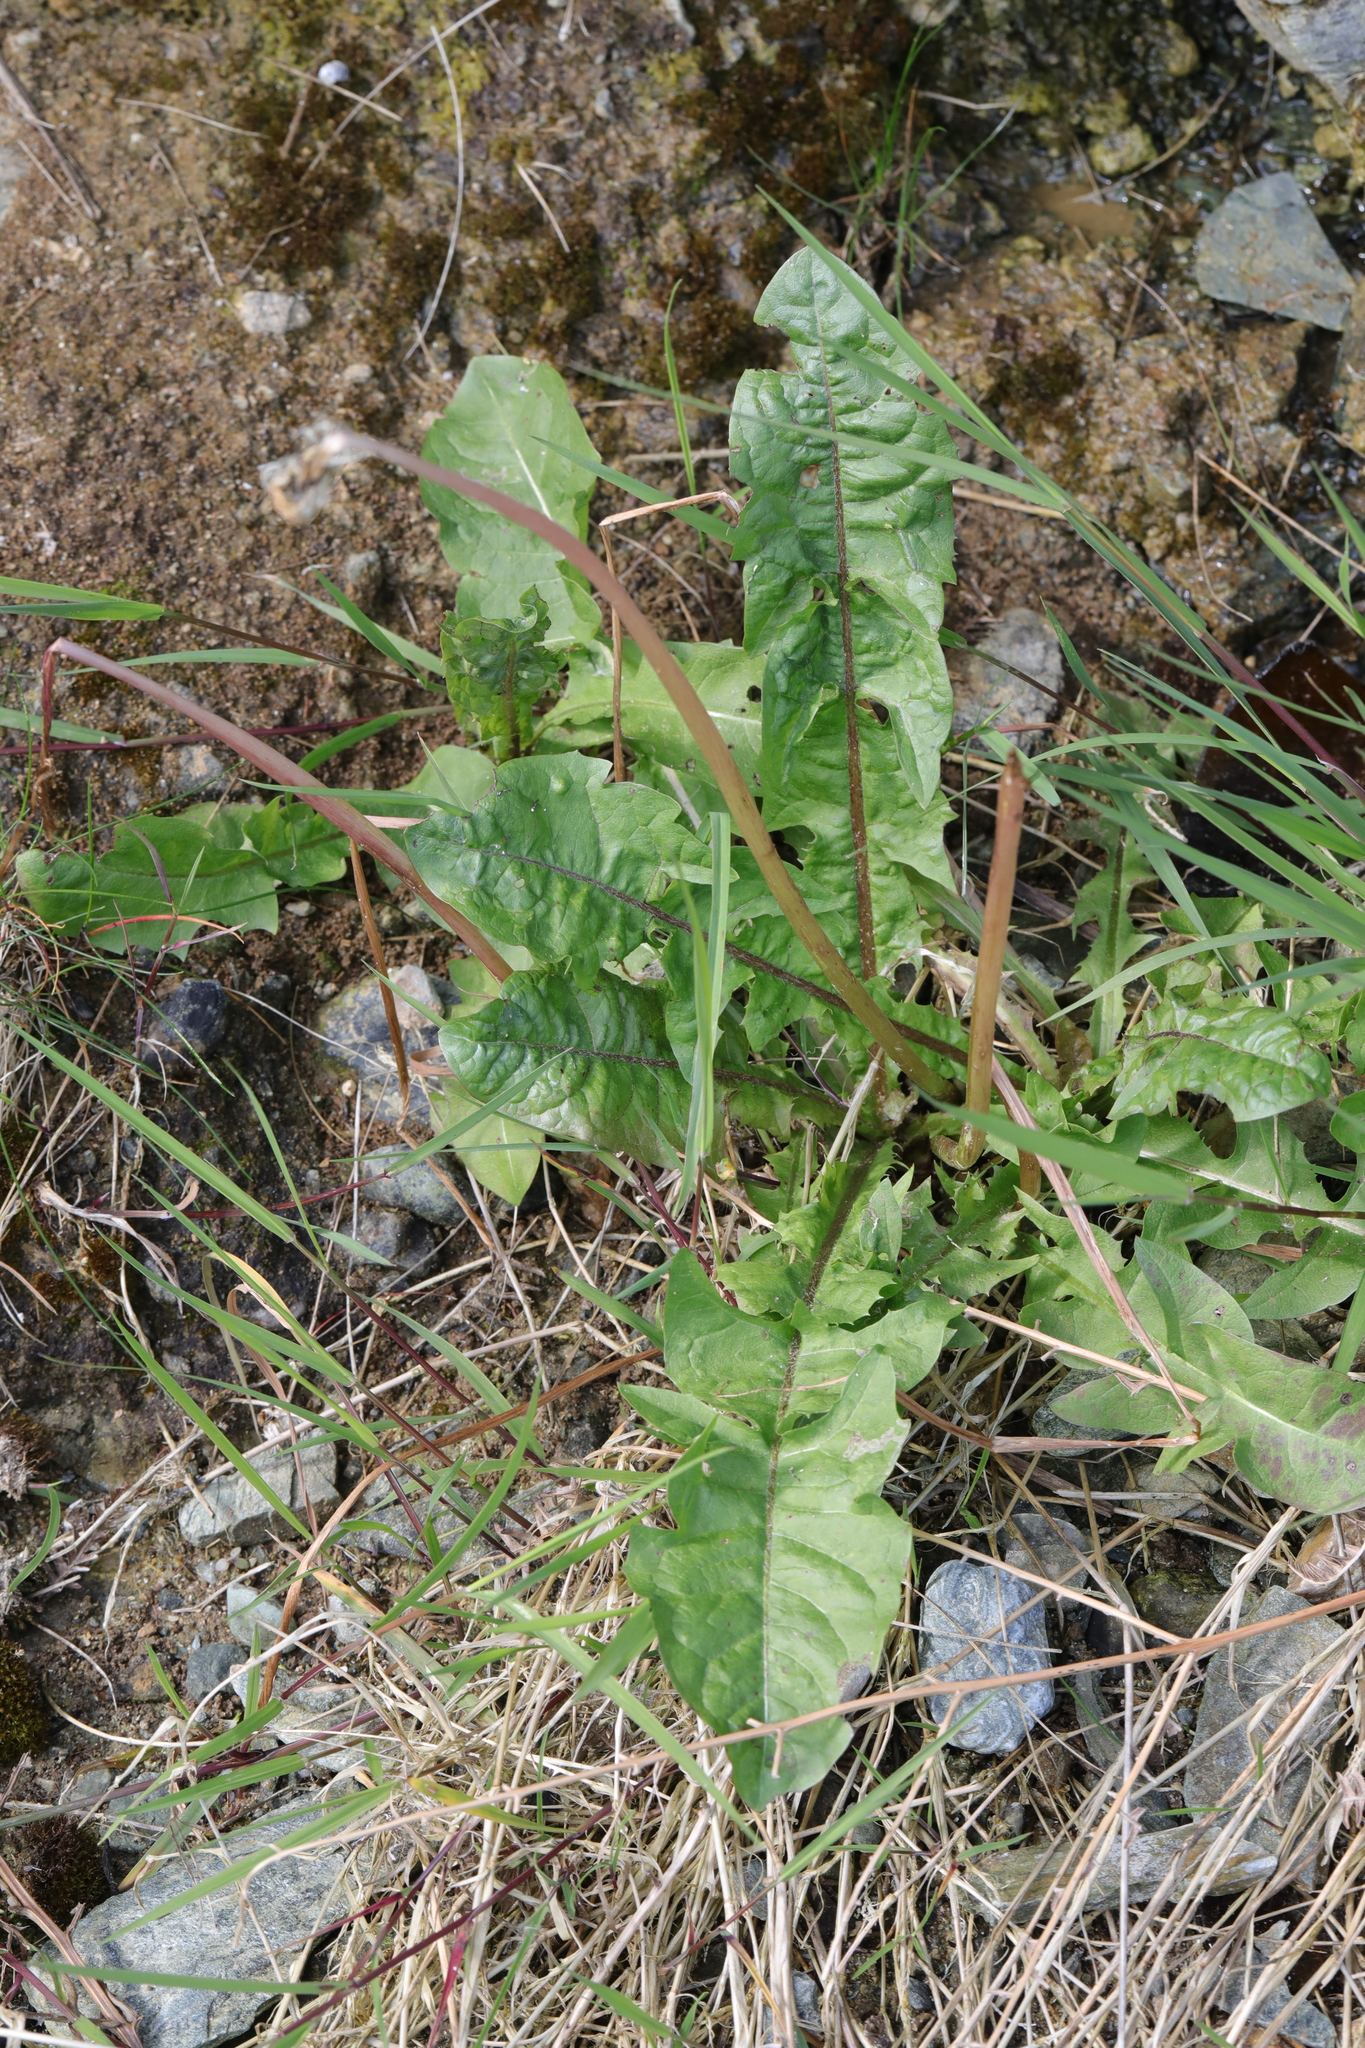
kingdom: Plantae
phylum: Tracheophyta
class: Magnoliopsida
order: Asterales
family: Asteraceae
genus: Taraxacum
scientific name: Taraxacum officinale
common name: Common dandelion
